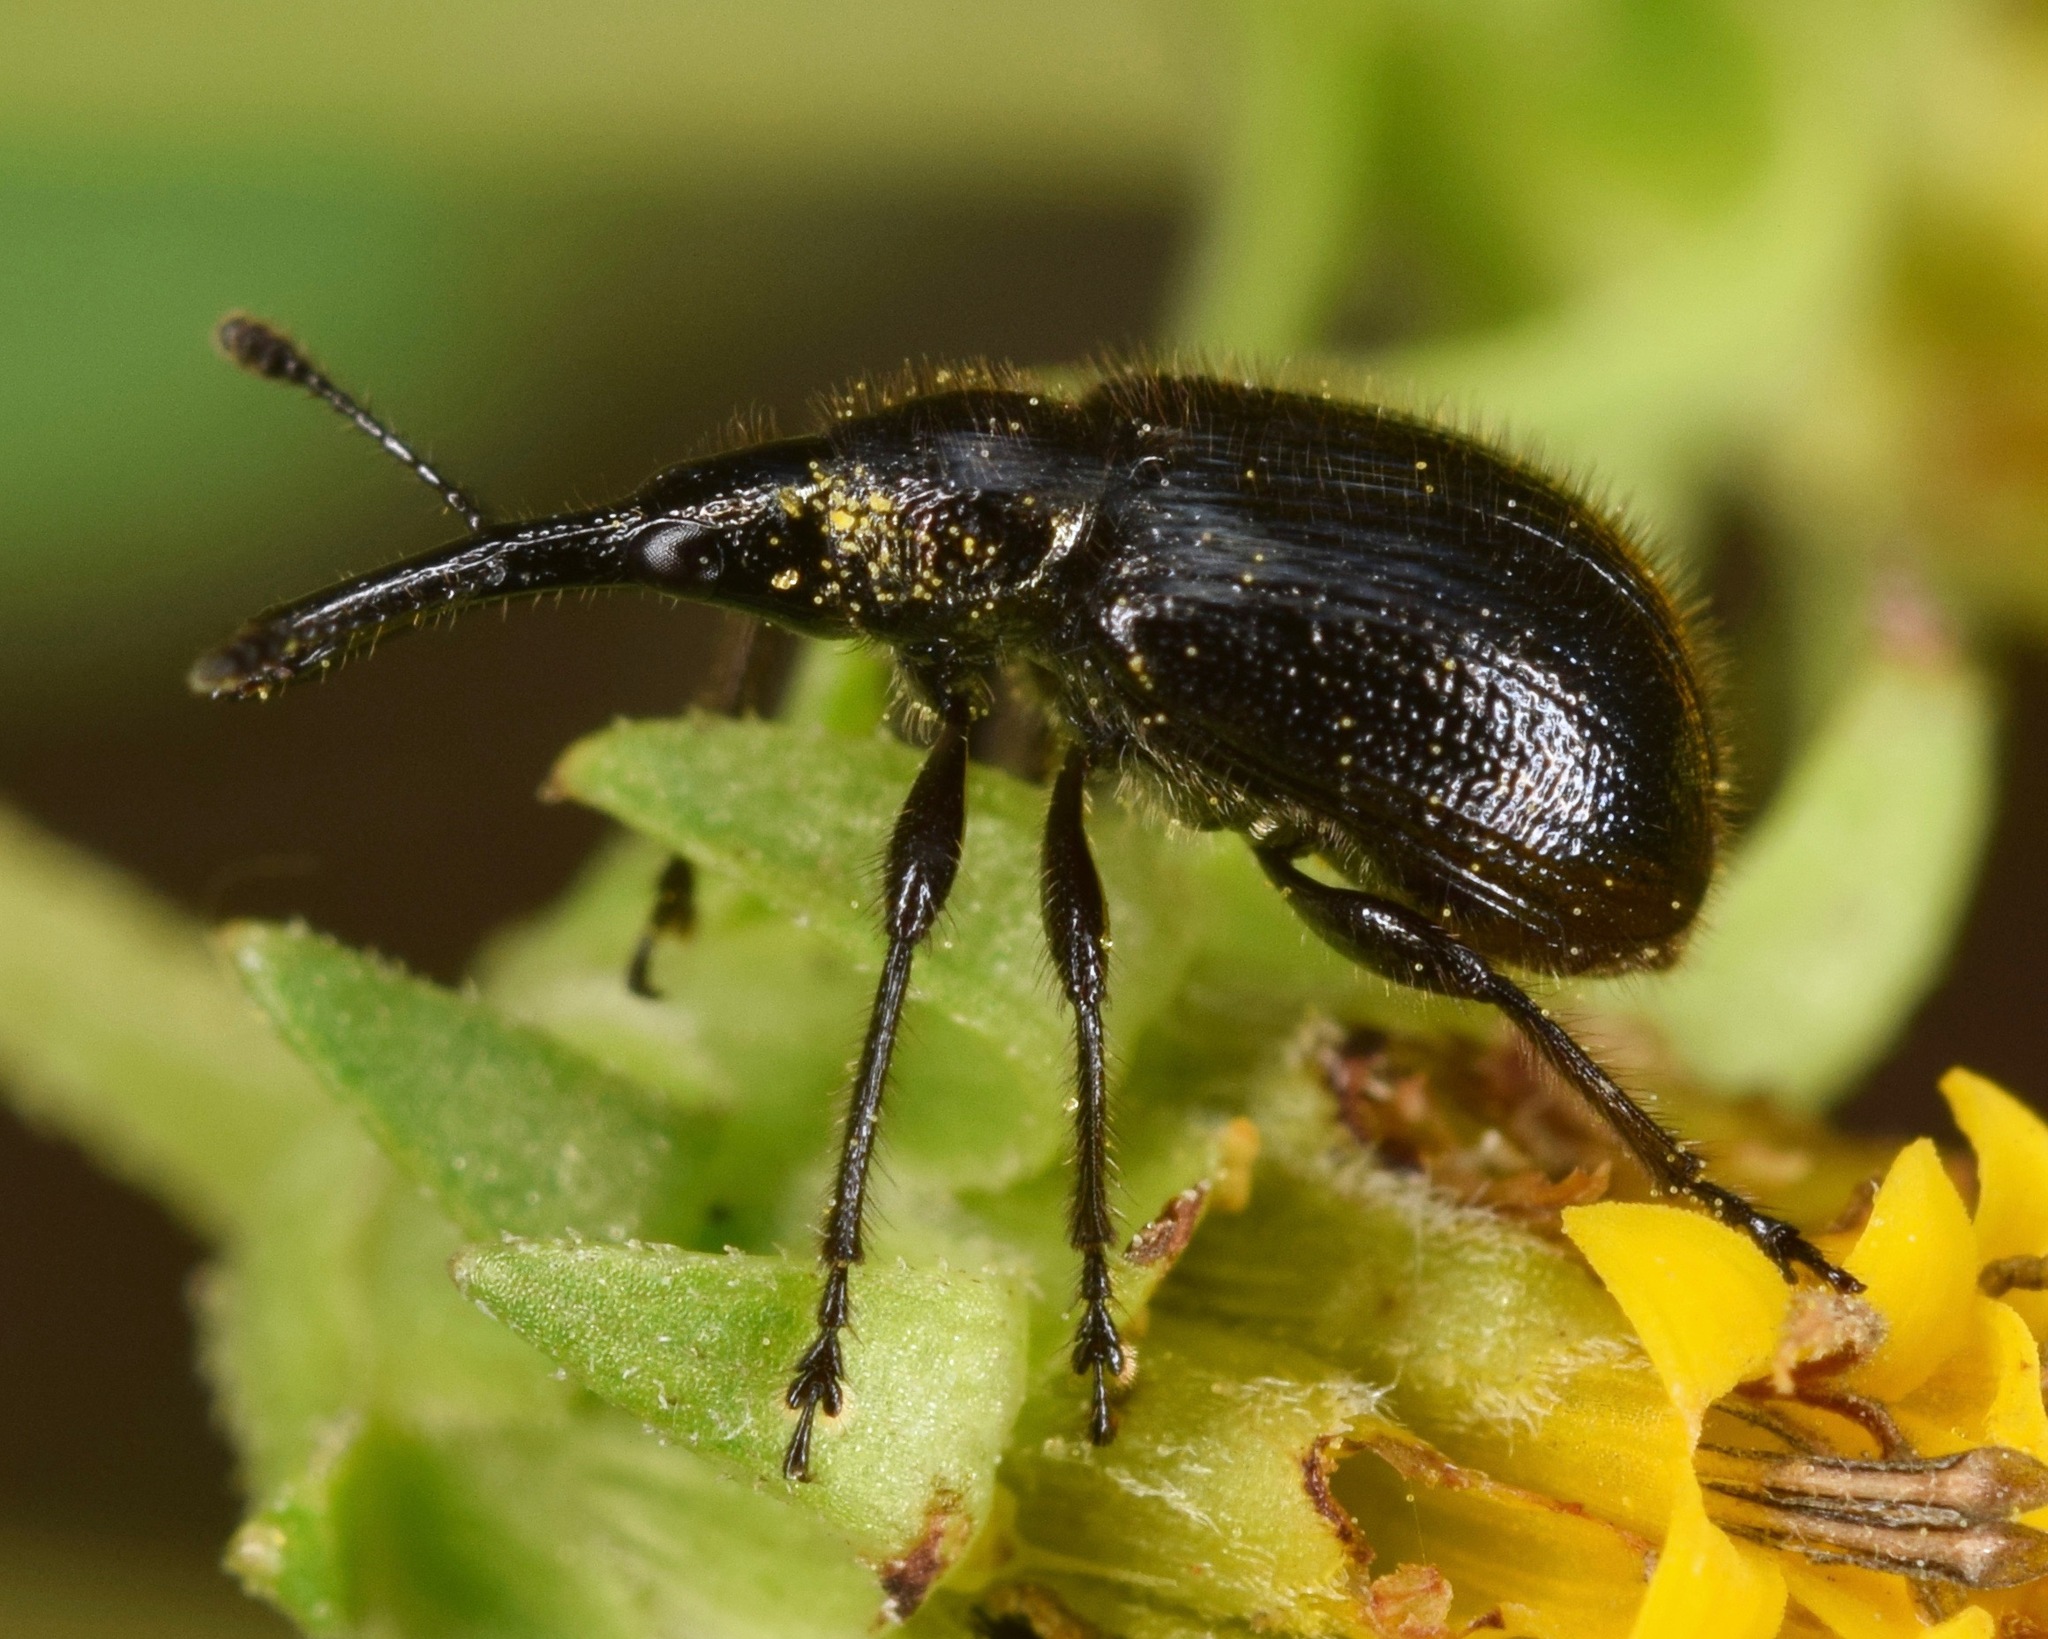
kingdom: Animalia
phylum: Arthropoda
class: Insecta
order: Coleoptera
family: Attelabidae
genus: Haplorhynchites
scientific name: Haplorhynchites aeneus
